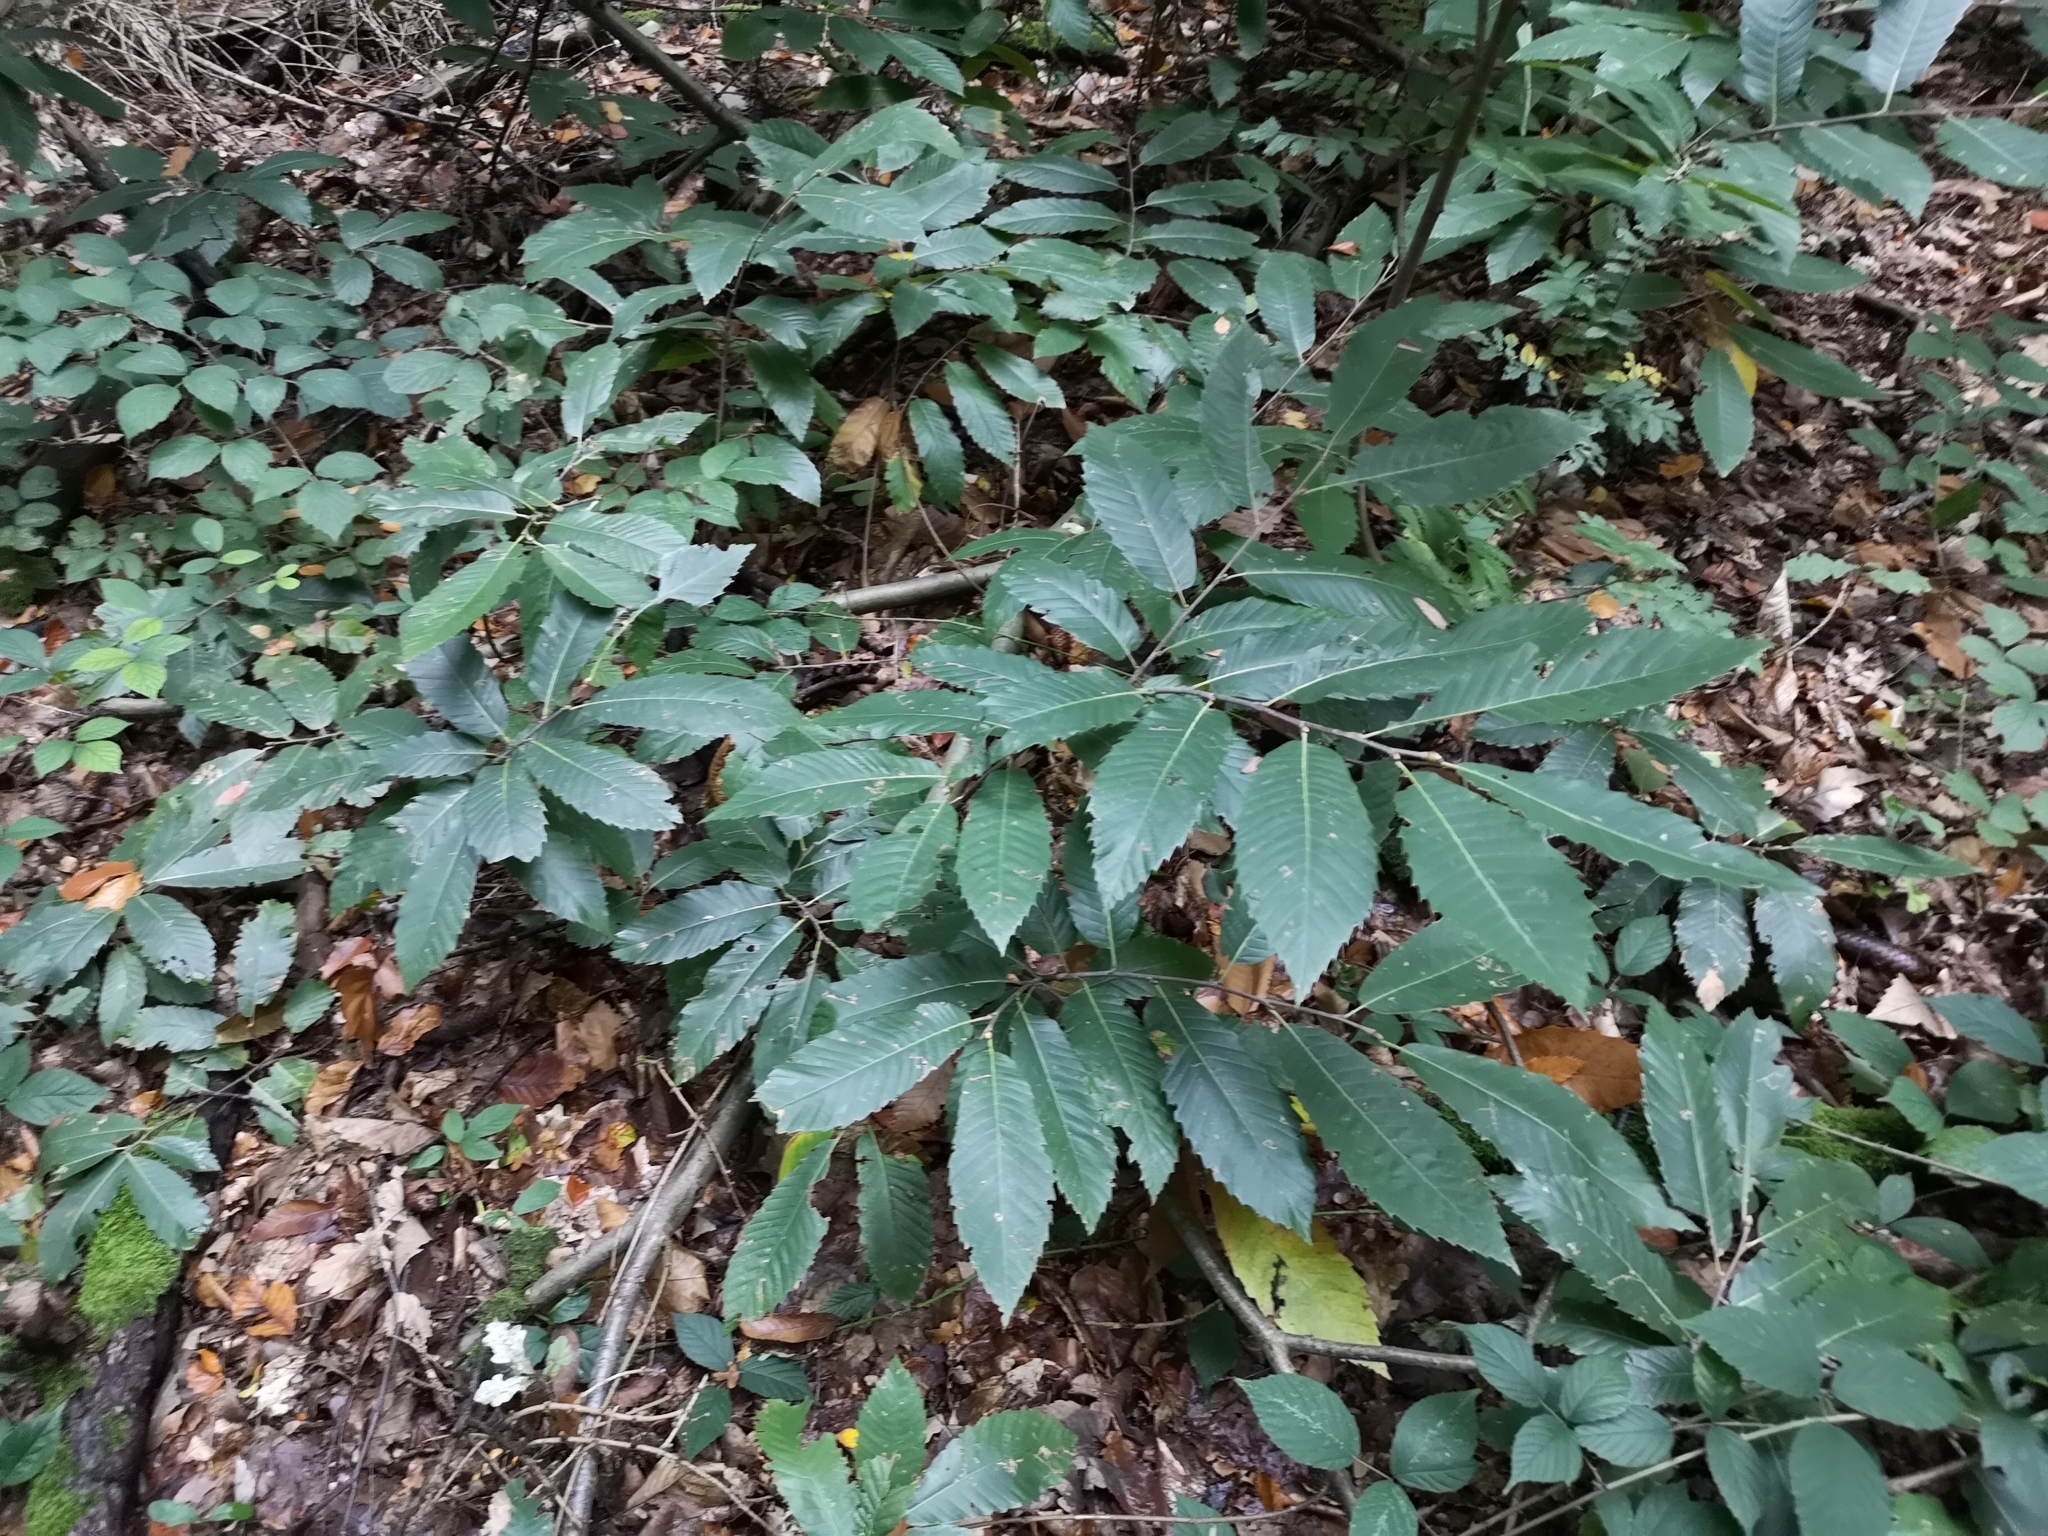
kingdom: Plantae
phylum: Tracheophyta
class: Magnoliopsida
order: Fagales
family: Fagaceae
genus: Castanea
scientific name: Castanea sativa
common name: Sweet chestnut
